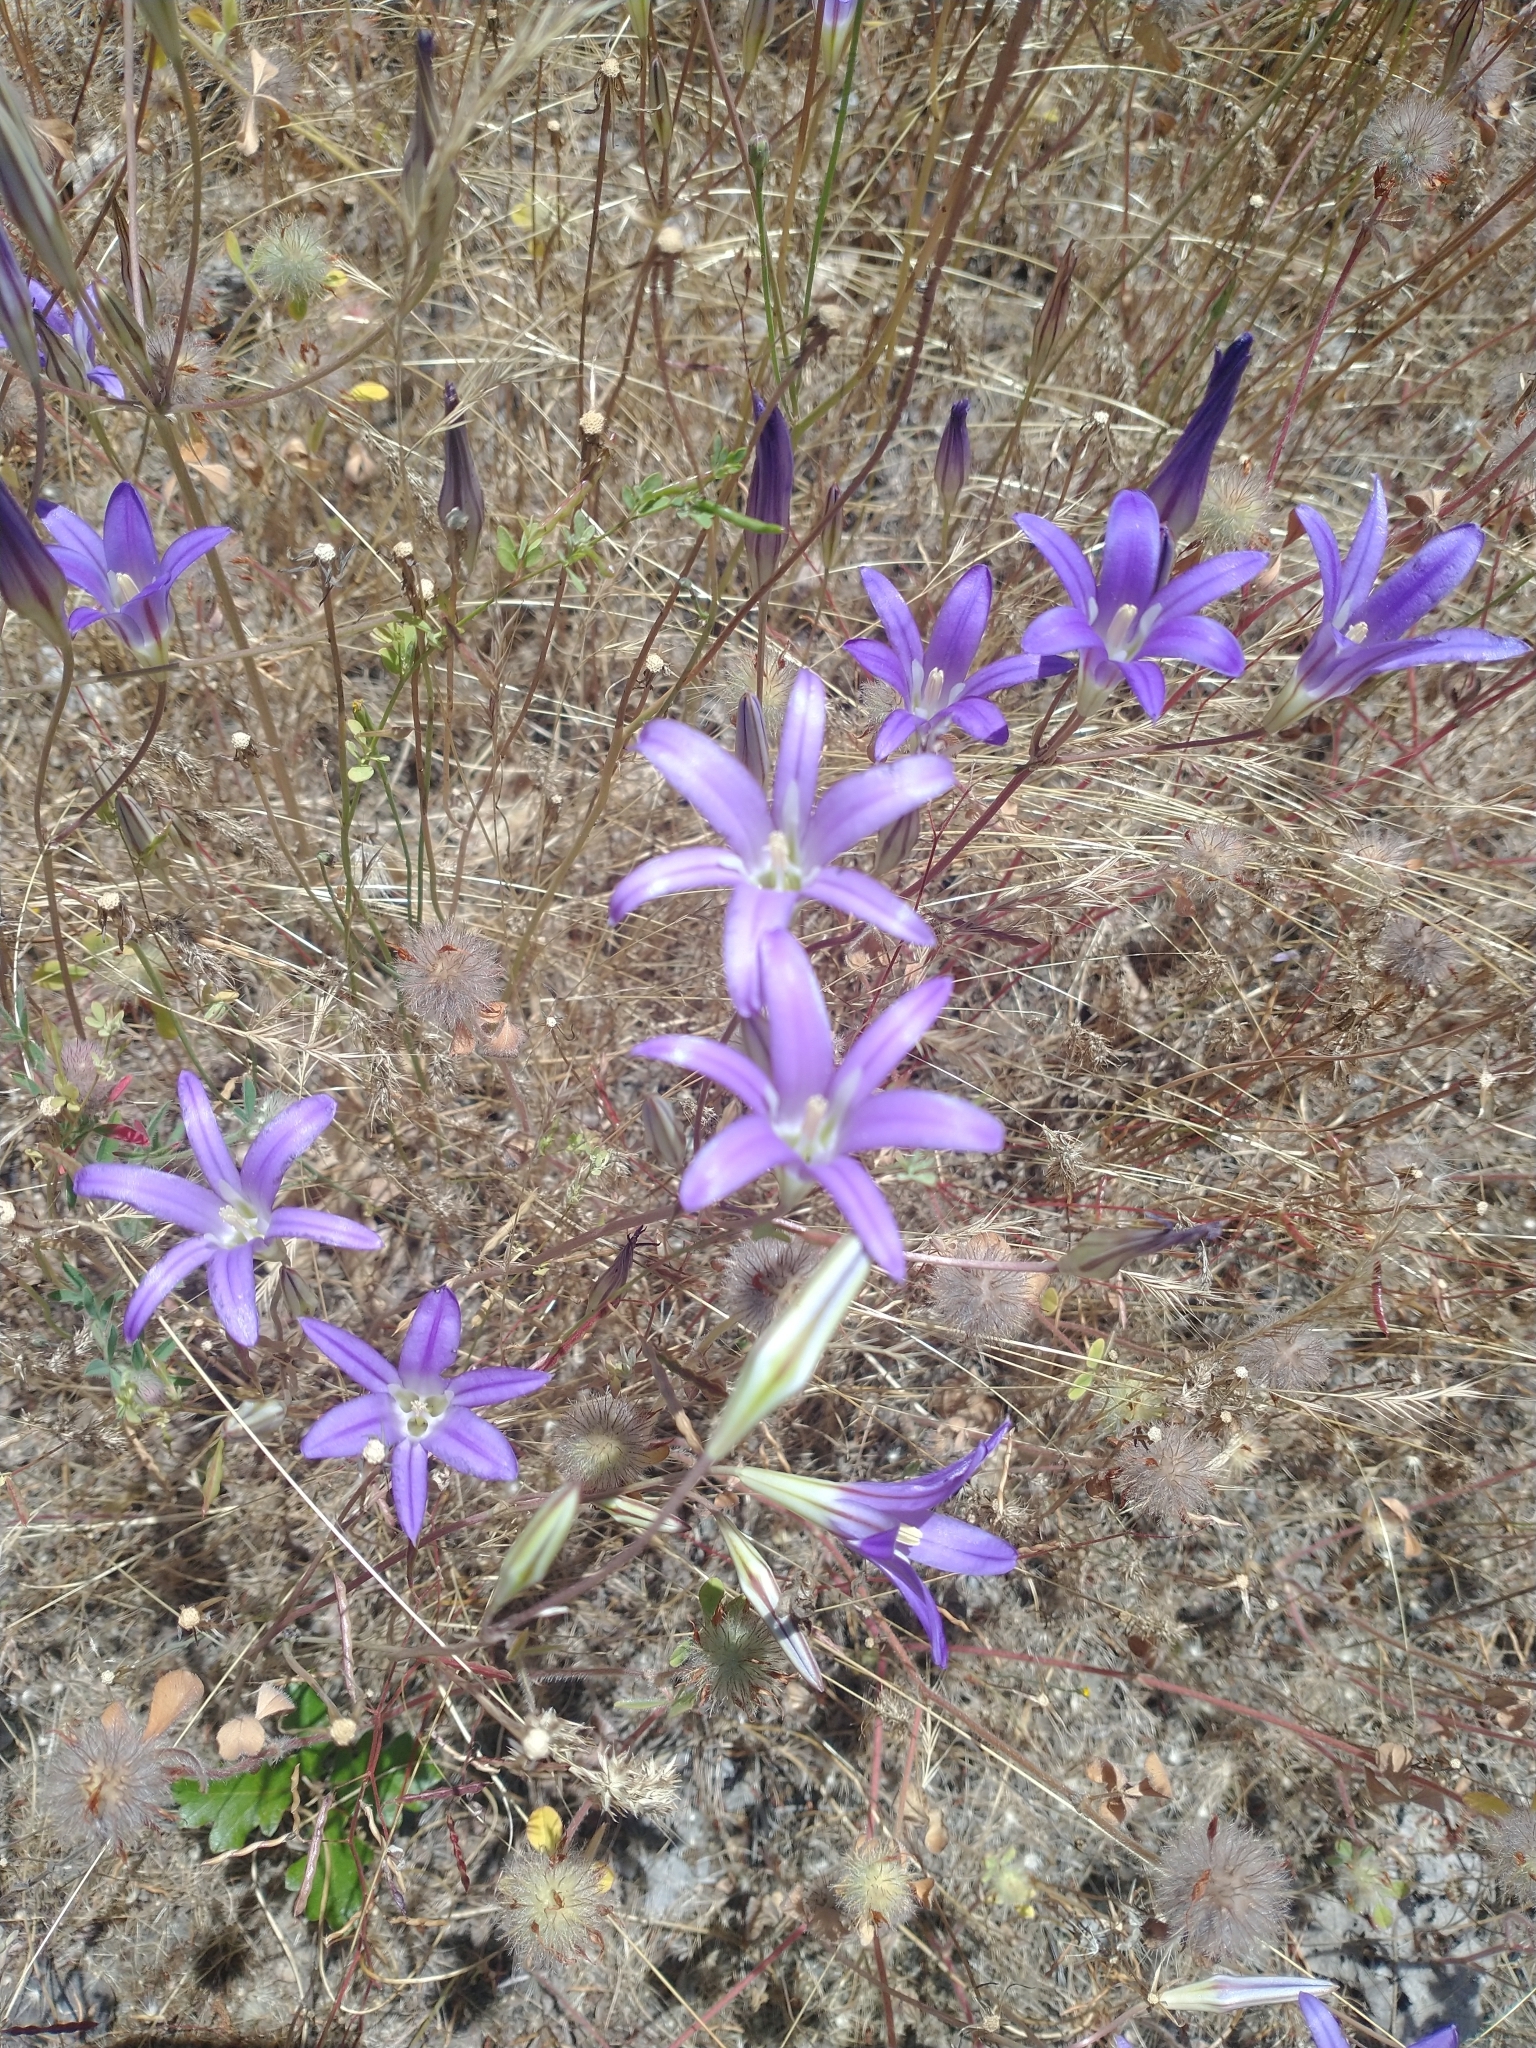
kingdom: Plantae
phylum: Tracheophyta
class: Liliopsida
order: Asparagales
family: Asparagaceae
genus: Brodiaea
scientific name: Brodiaea elegans
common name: Elegant cluster-lily
